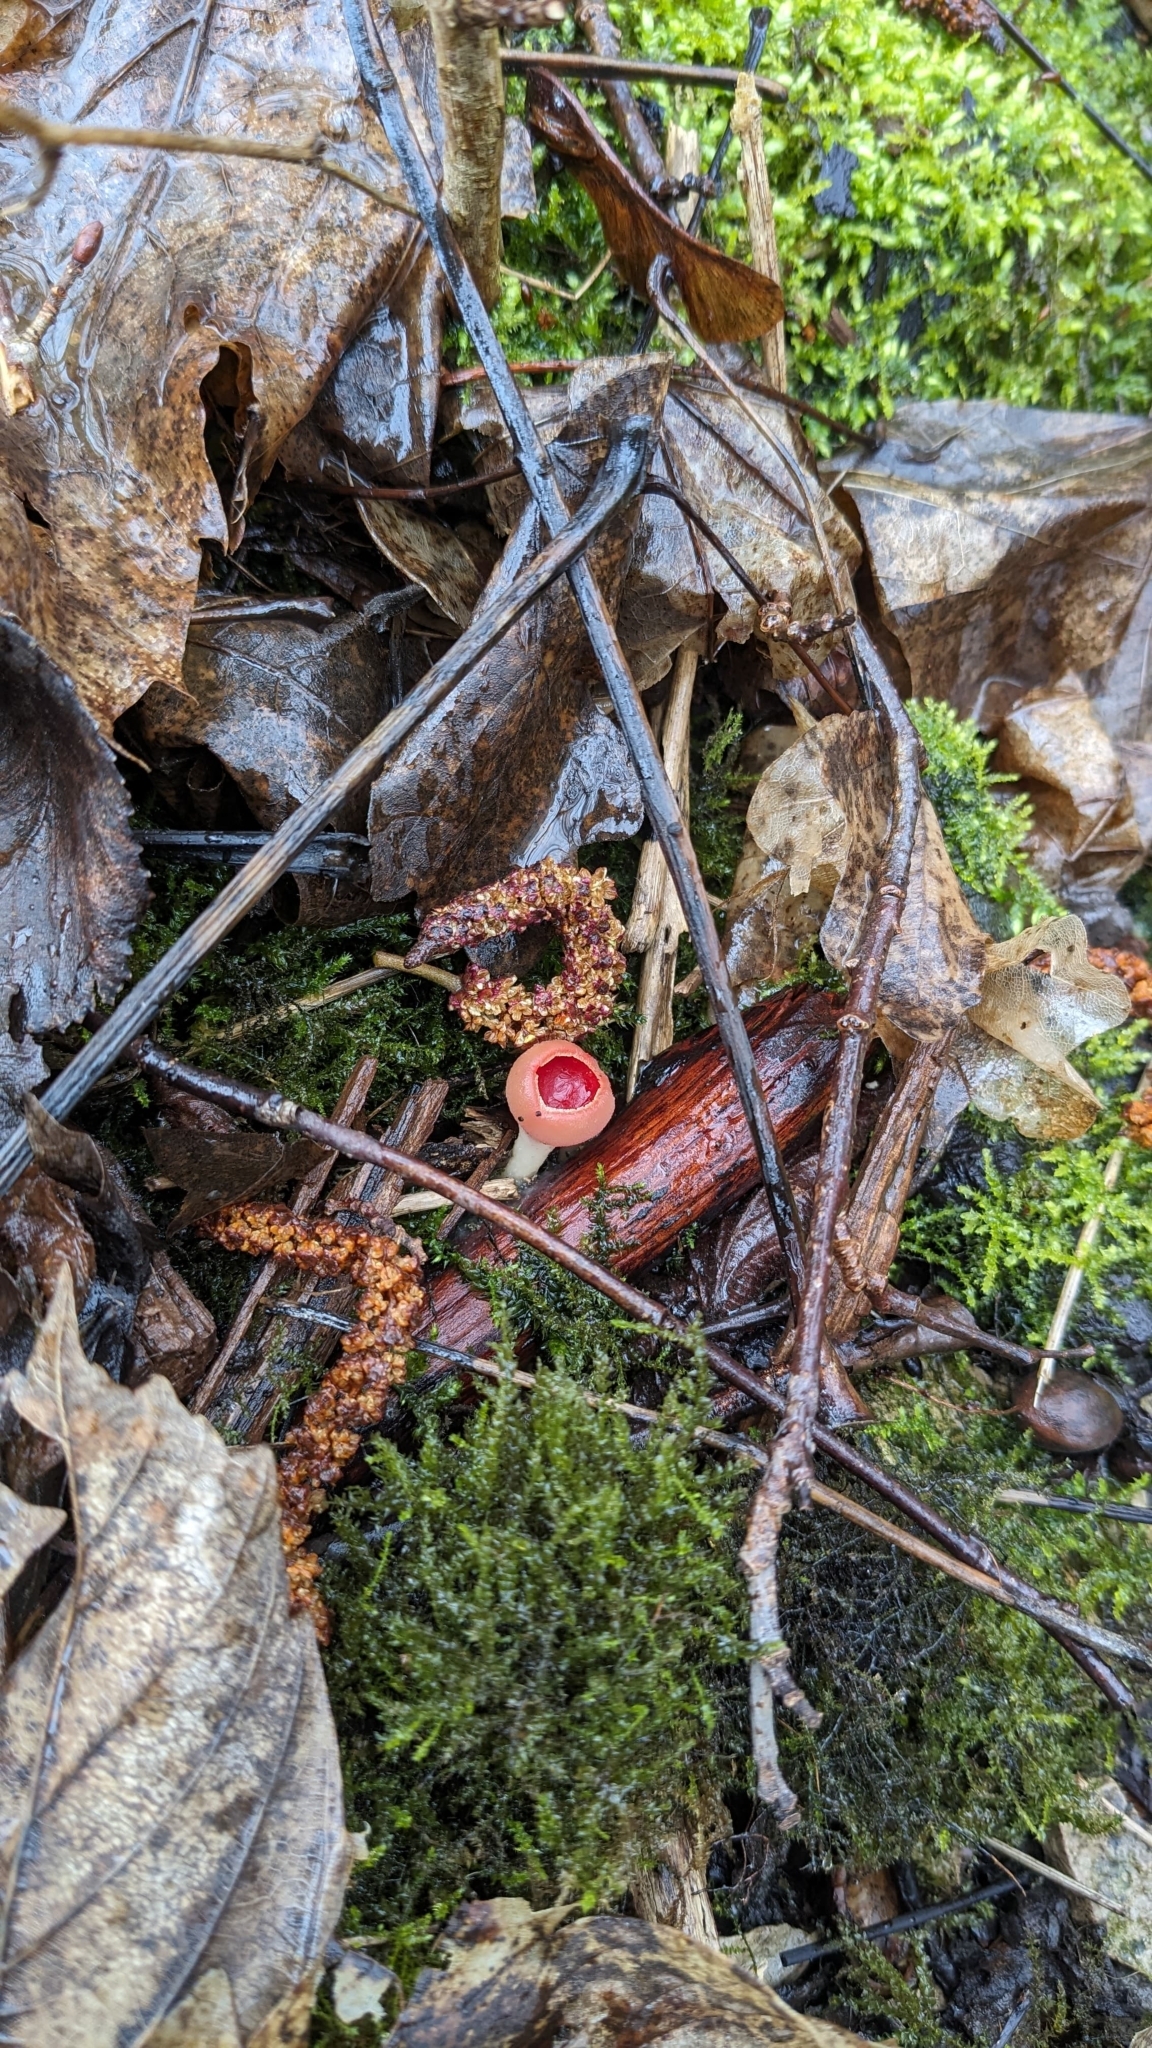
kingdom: Fungi
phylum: Ascomycota
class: Pezizomycetes
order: Pezizales
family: Sarcoscyphaceae
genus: Sarcoscypha
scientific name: Sarcoscypha
